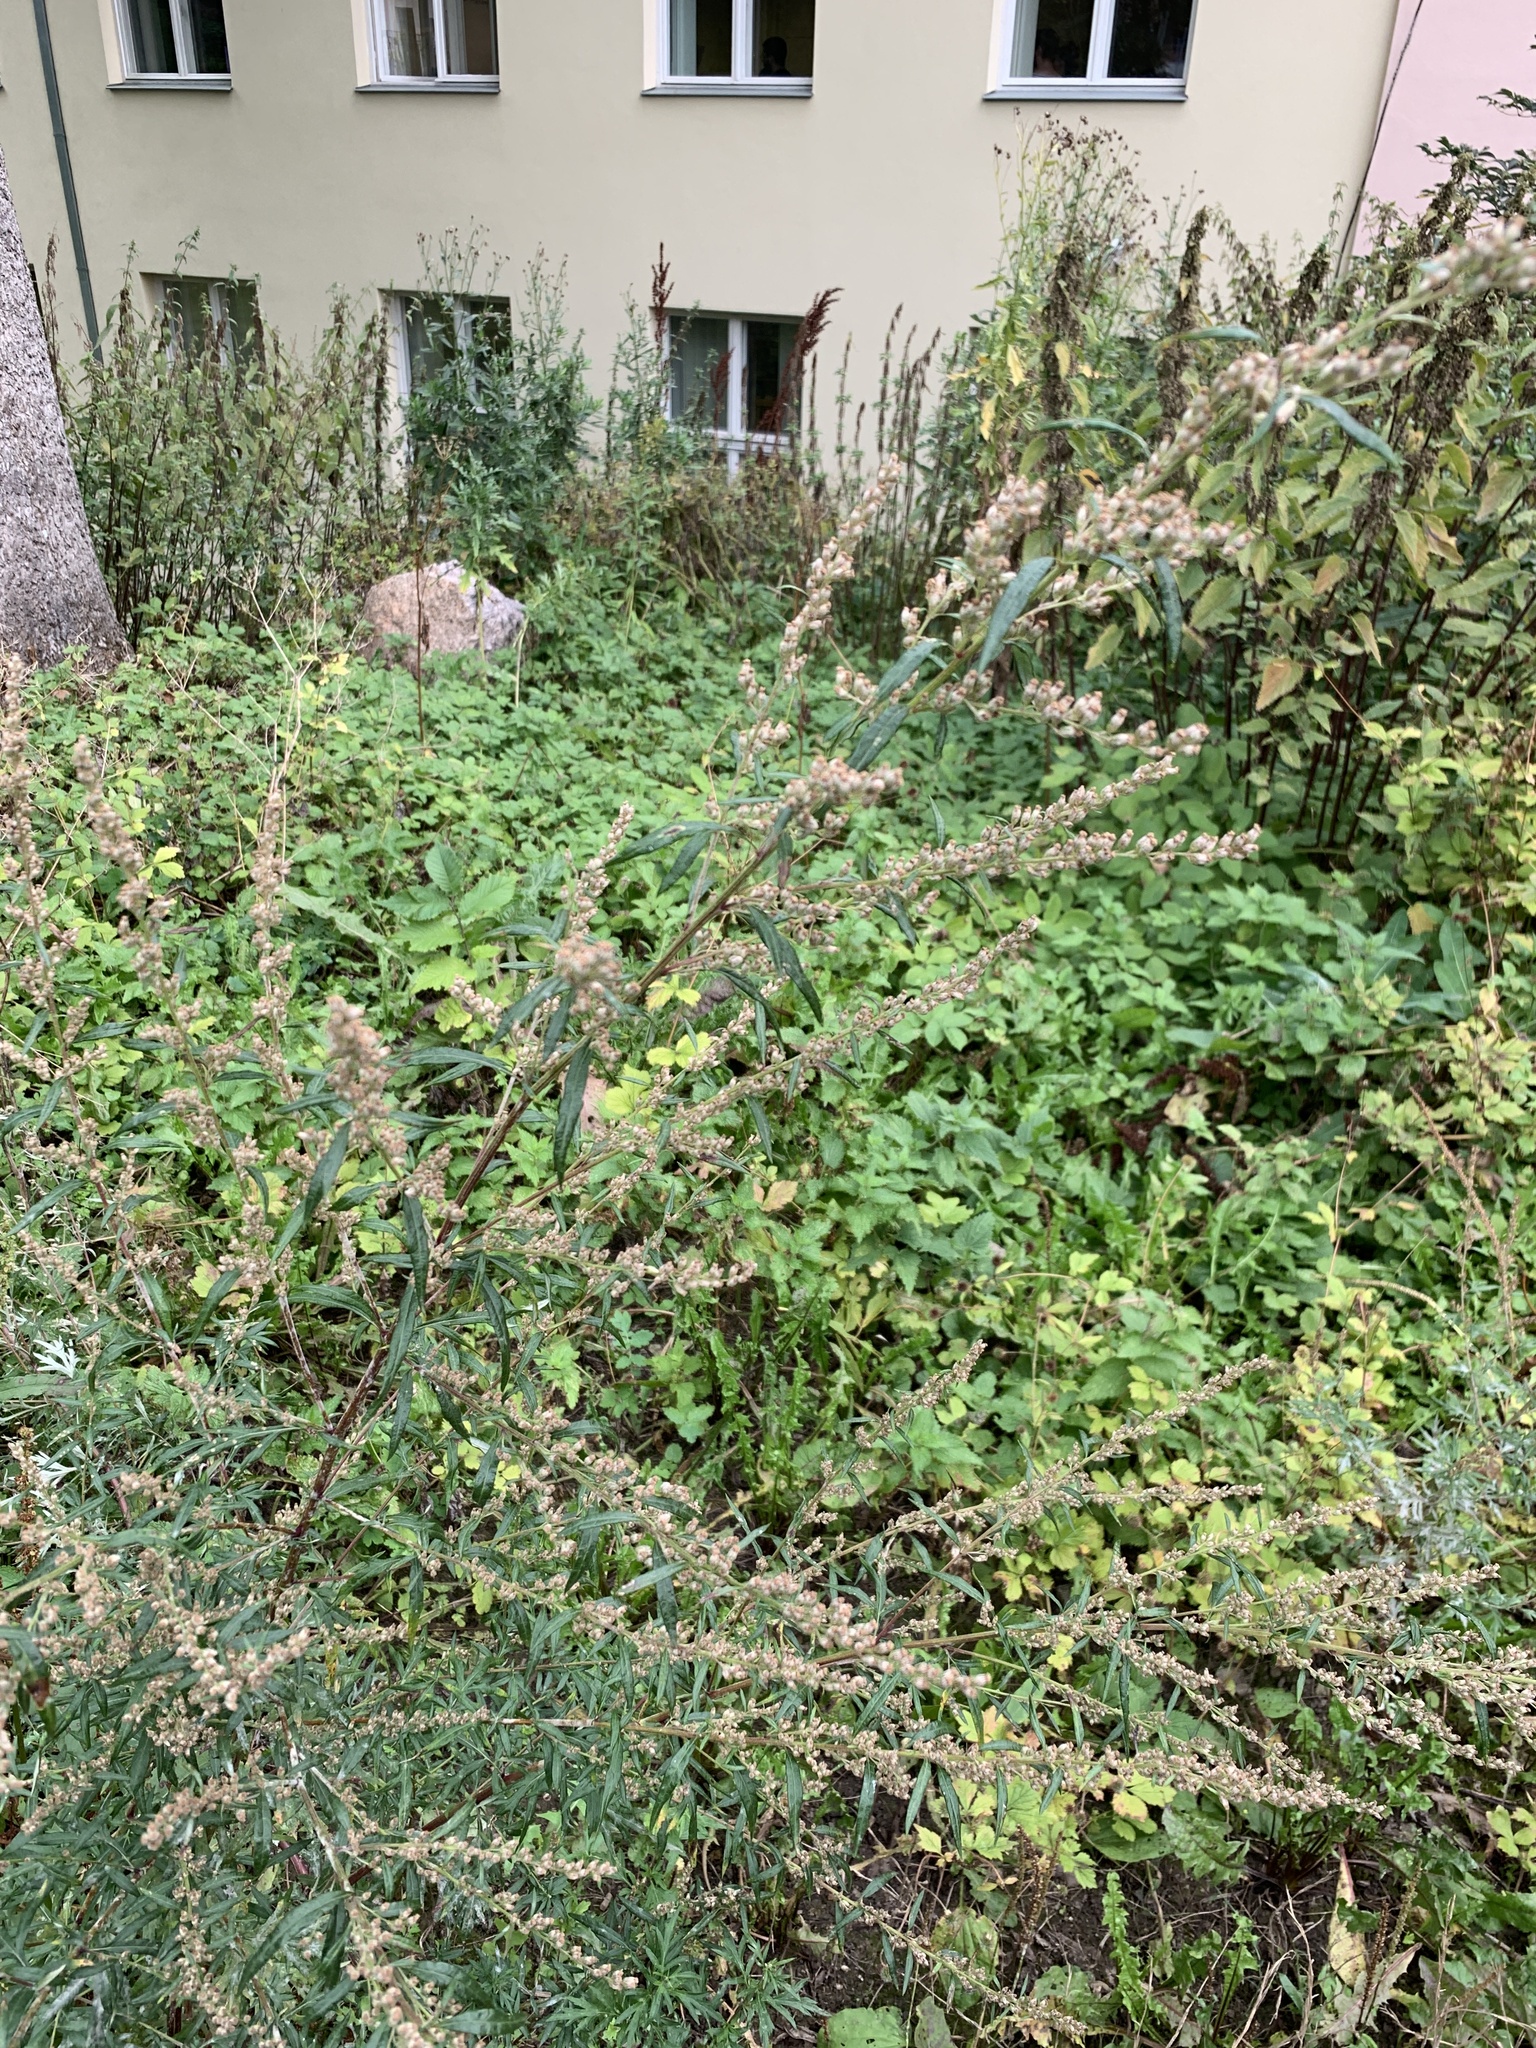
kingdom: Plantae
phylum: Tracheophyta
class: Magnoliopsida
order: Asterales
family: Asteraceae
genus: Artemisia
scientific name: Artemisia vulgaris
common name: Mugwort
